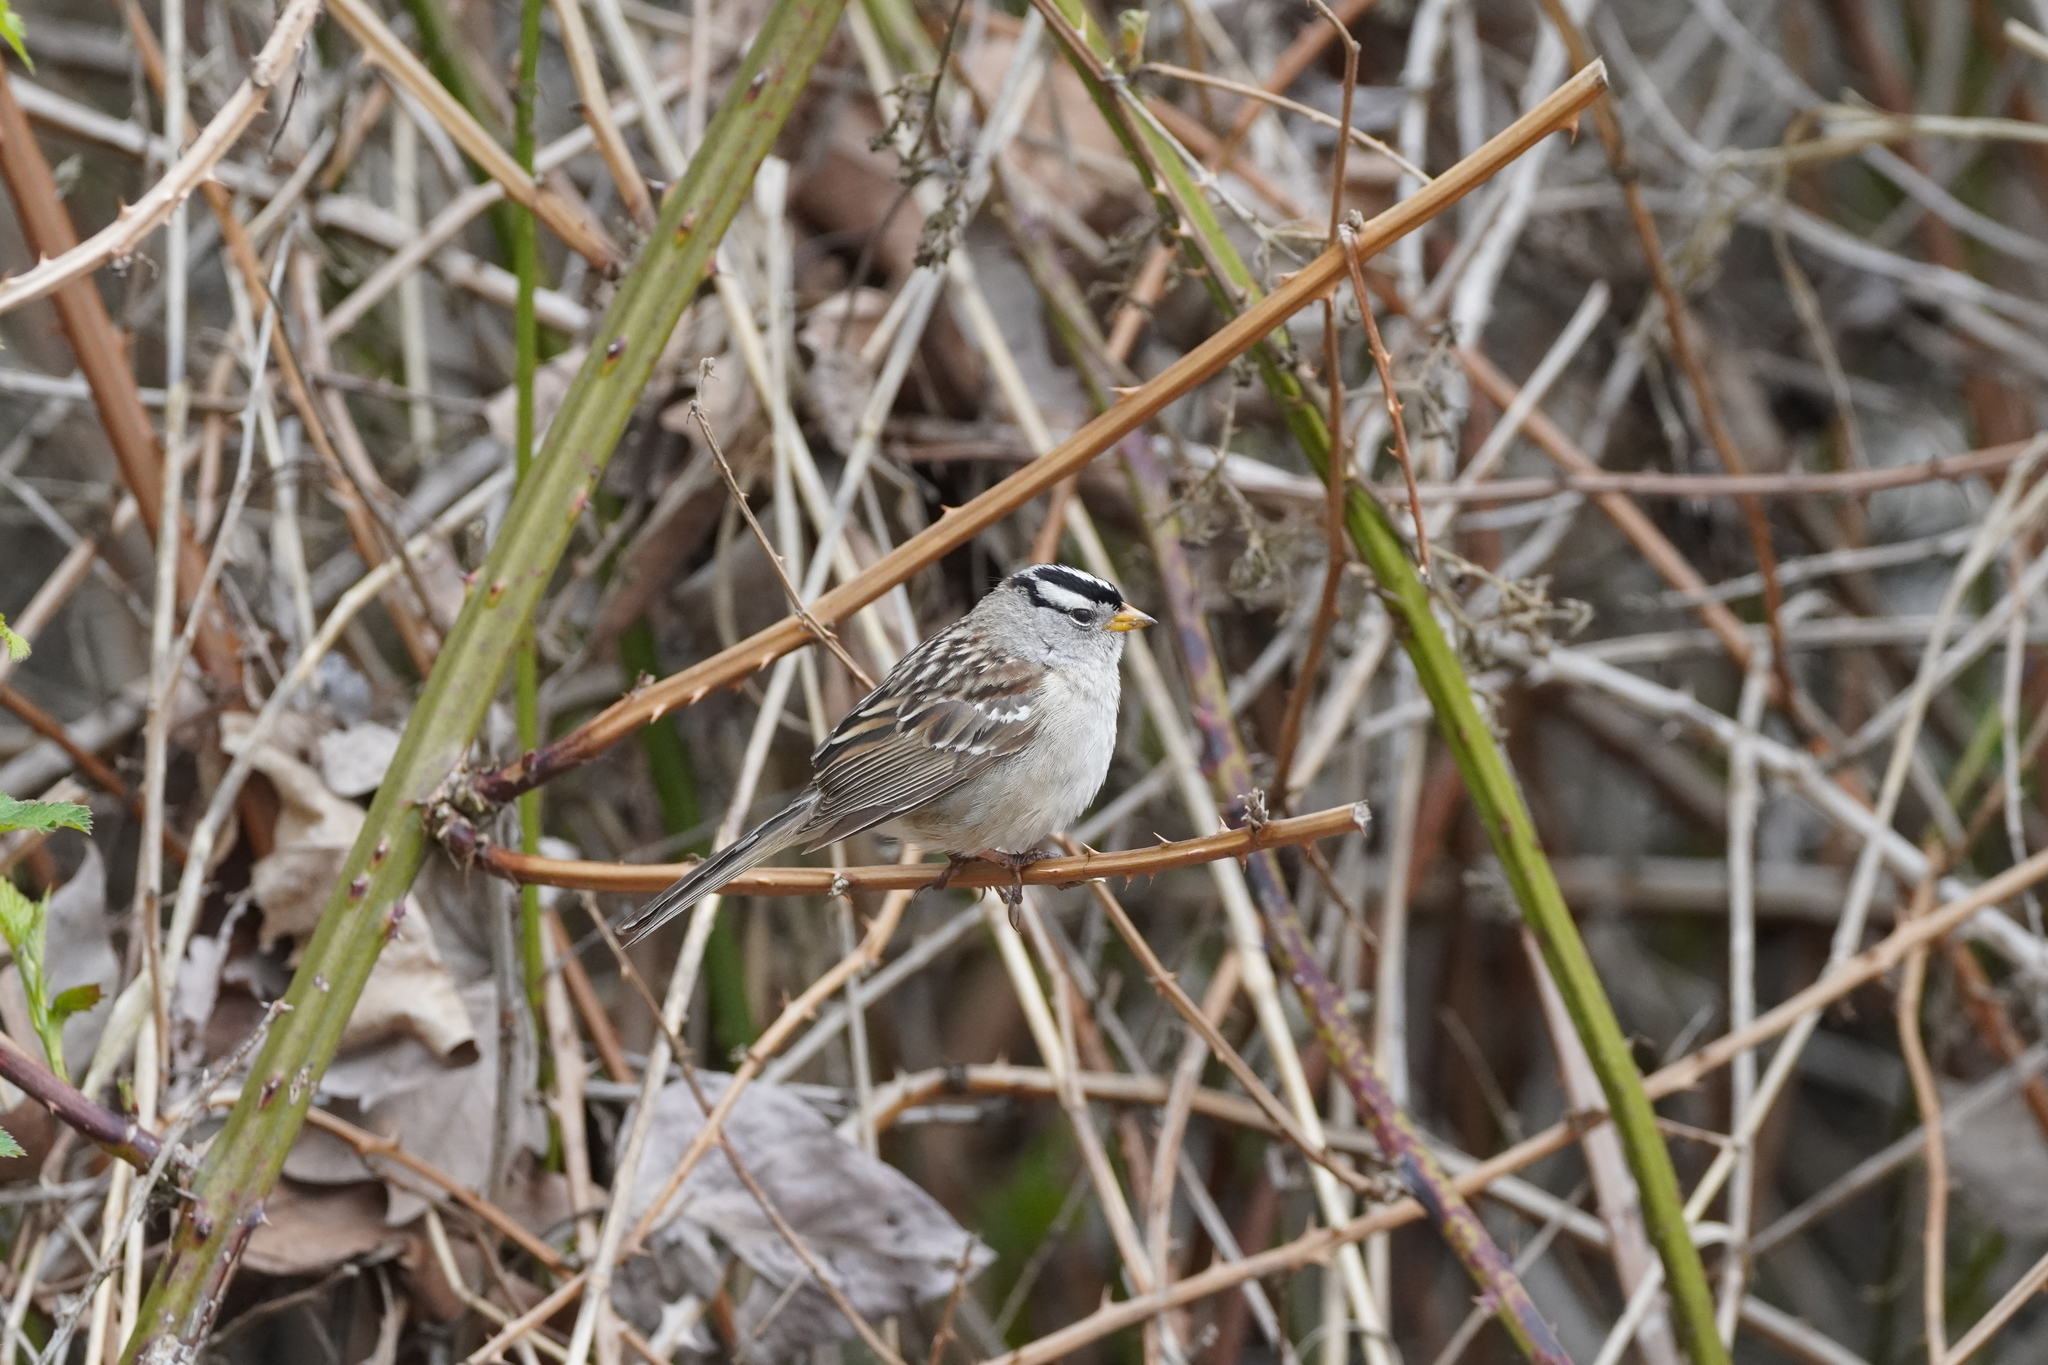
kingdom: Animalia
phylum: Chordata
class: Aves
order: Passeriformes
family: Passerellidae
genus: Zonotrichia
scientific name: Zonotrichia leucophrys
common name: White-crowned sparrow
